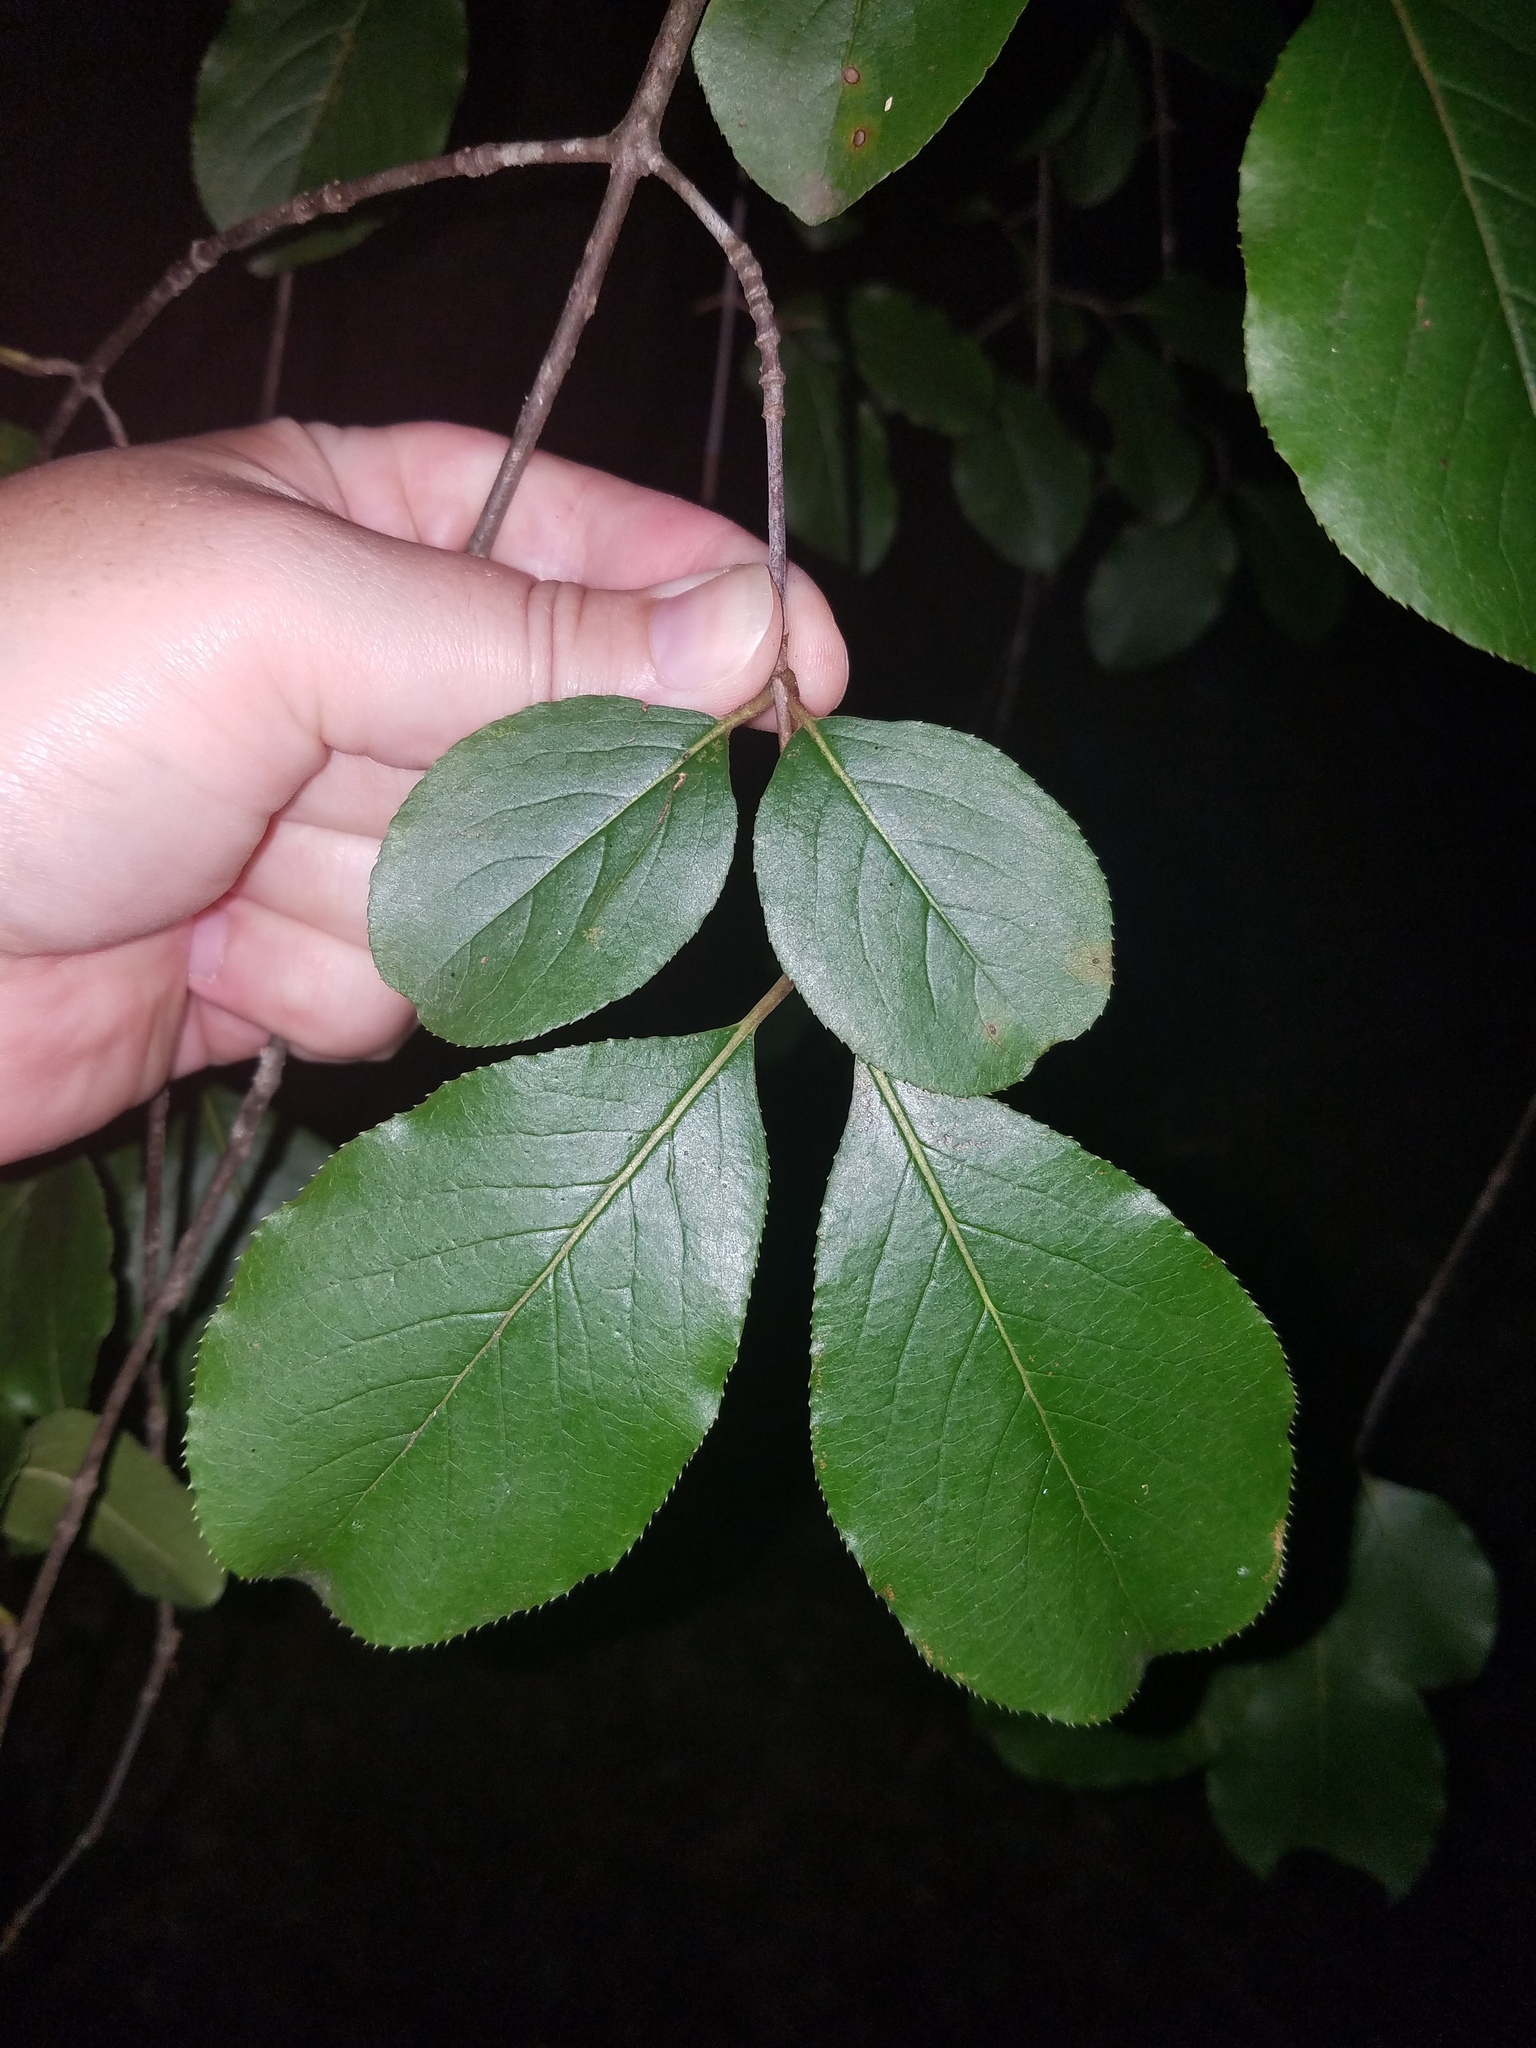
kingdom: Plantae
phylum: Tracheophyta
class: Magnoliopsida
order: Dipsacales
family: Viburnaceae
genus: Viburnum
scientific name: Viburnum rufidulum
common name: Blue haw
